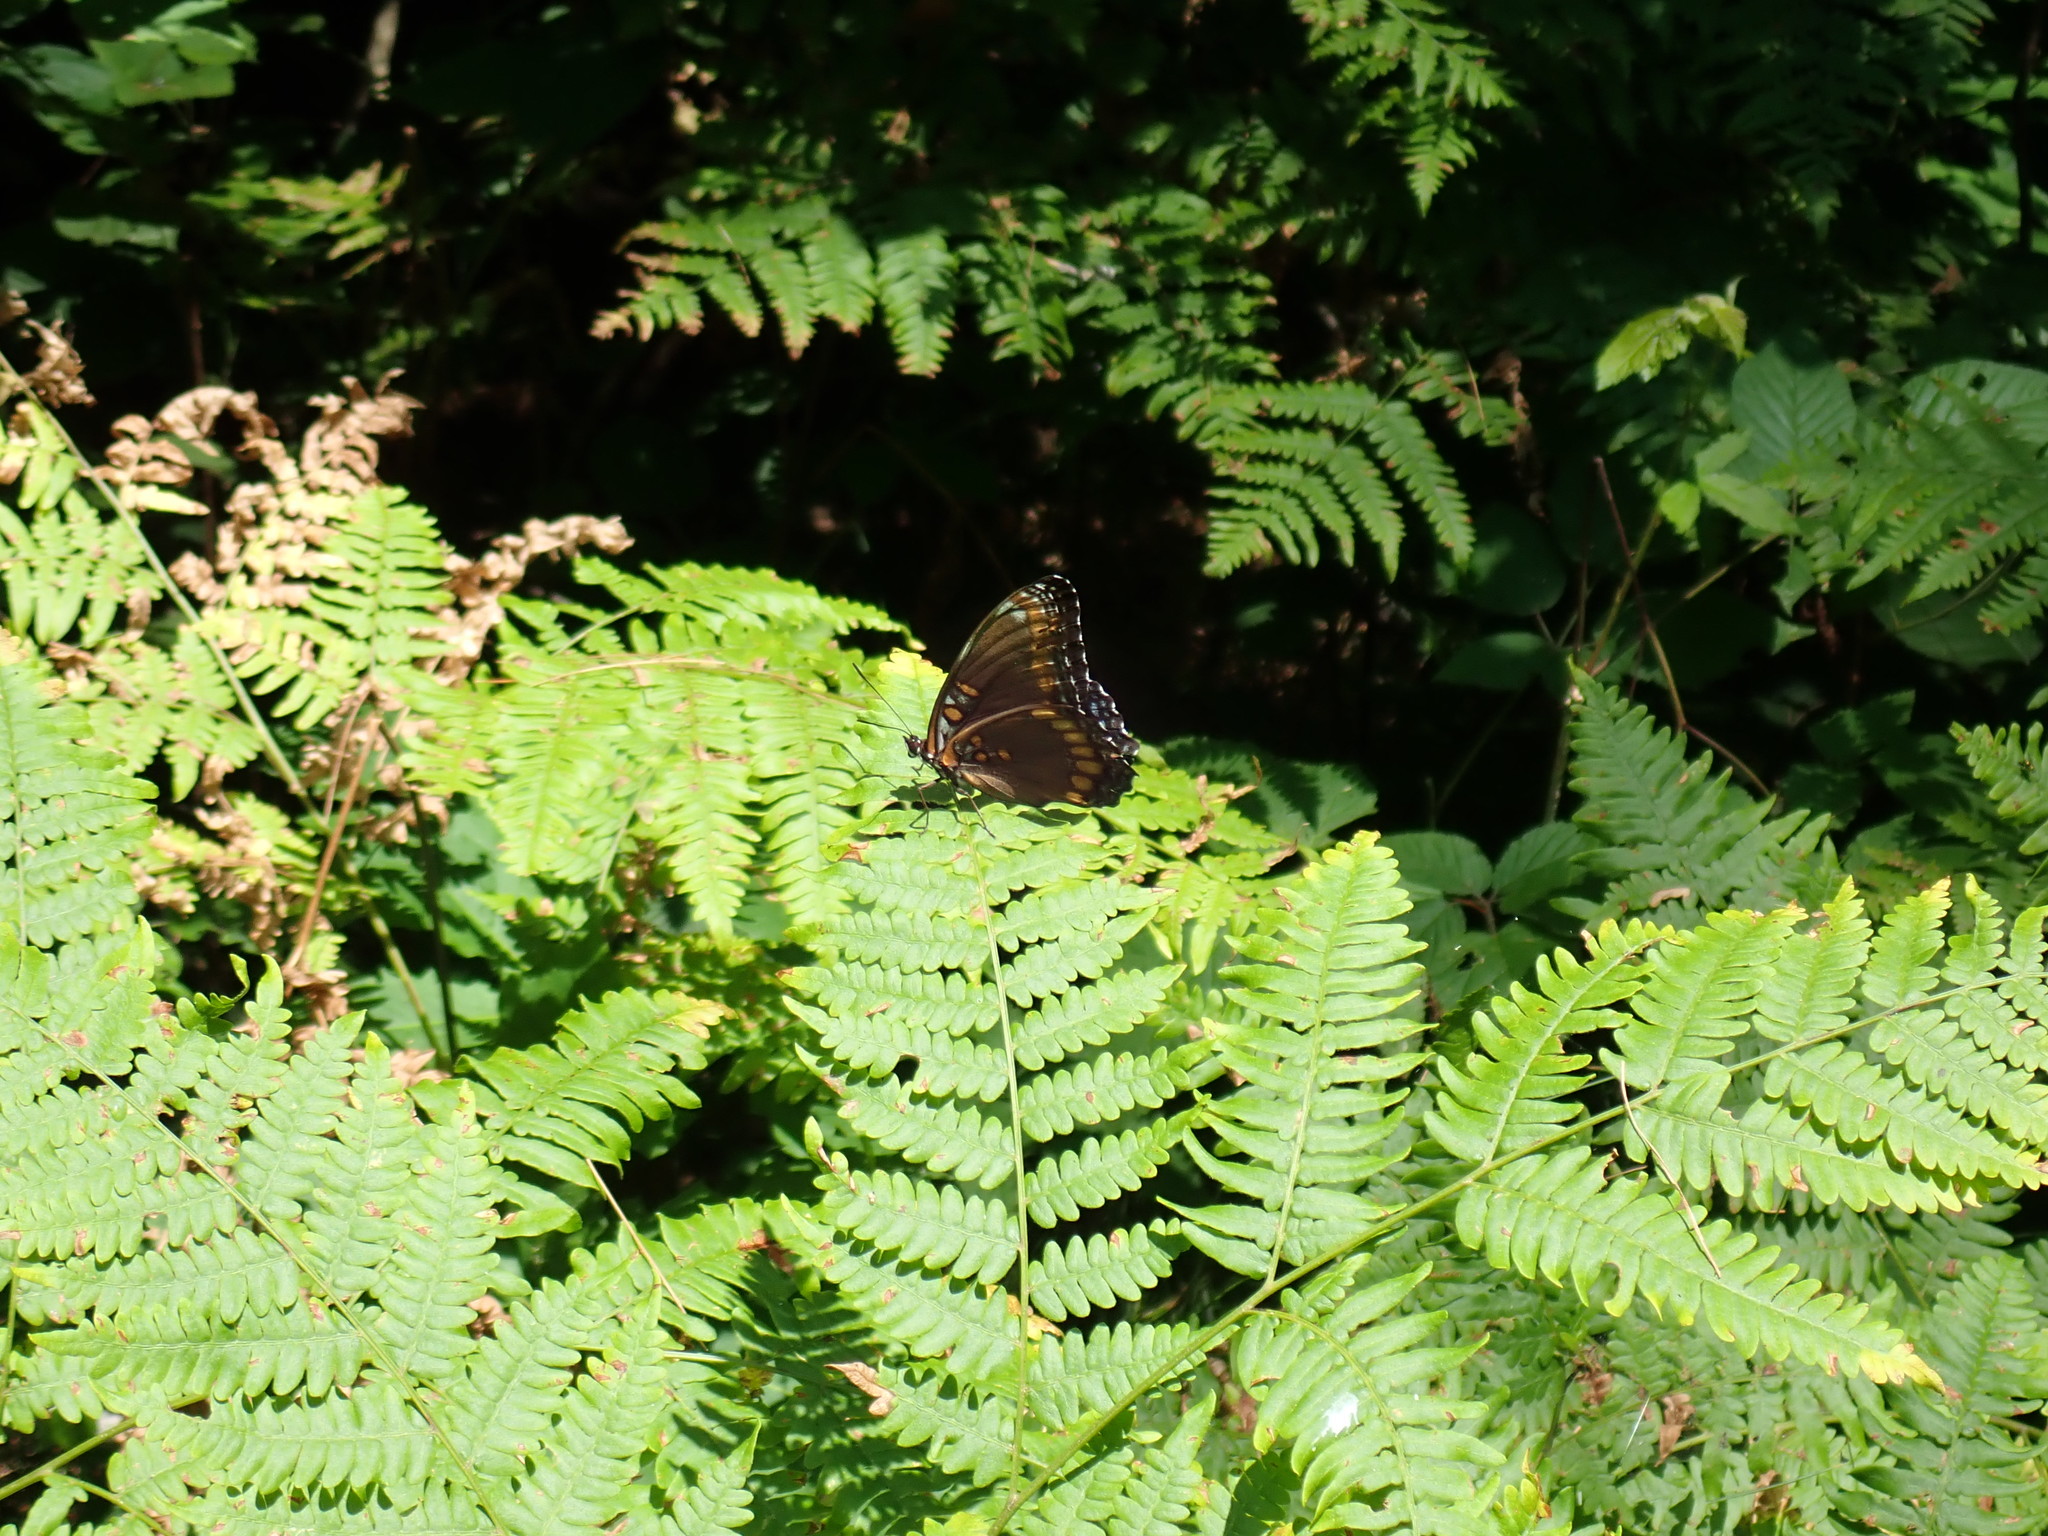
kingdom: Animalia
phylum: Arthropoda
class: Insecta
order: Lepidoptera
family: Nymphalidae
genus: Limenitis
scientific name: Limenitis arthemis
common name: Red-spotted admiral
